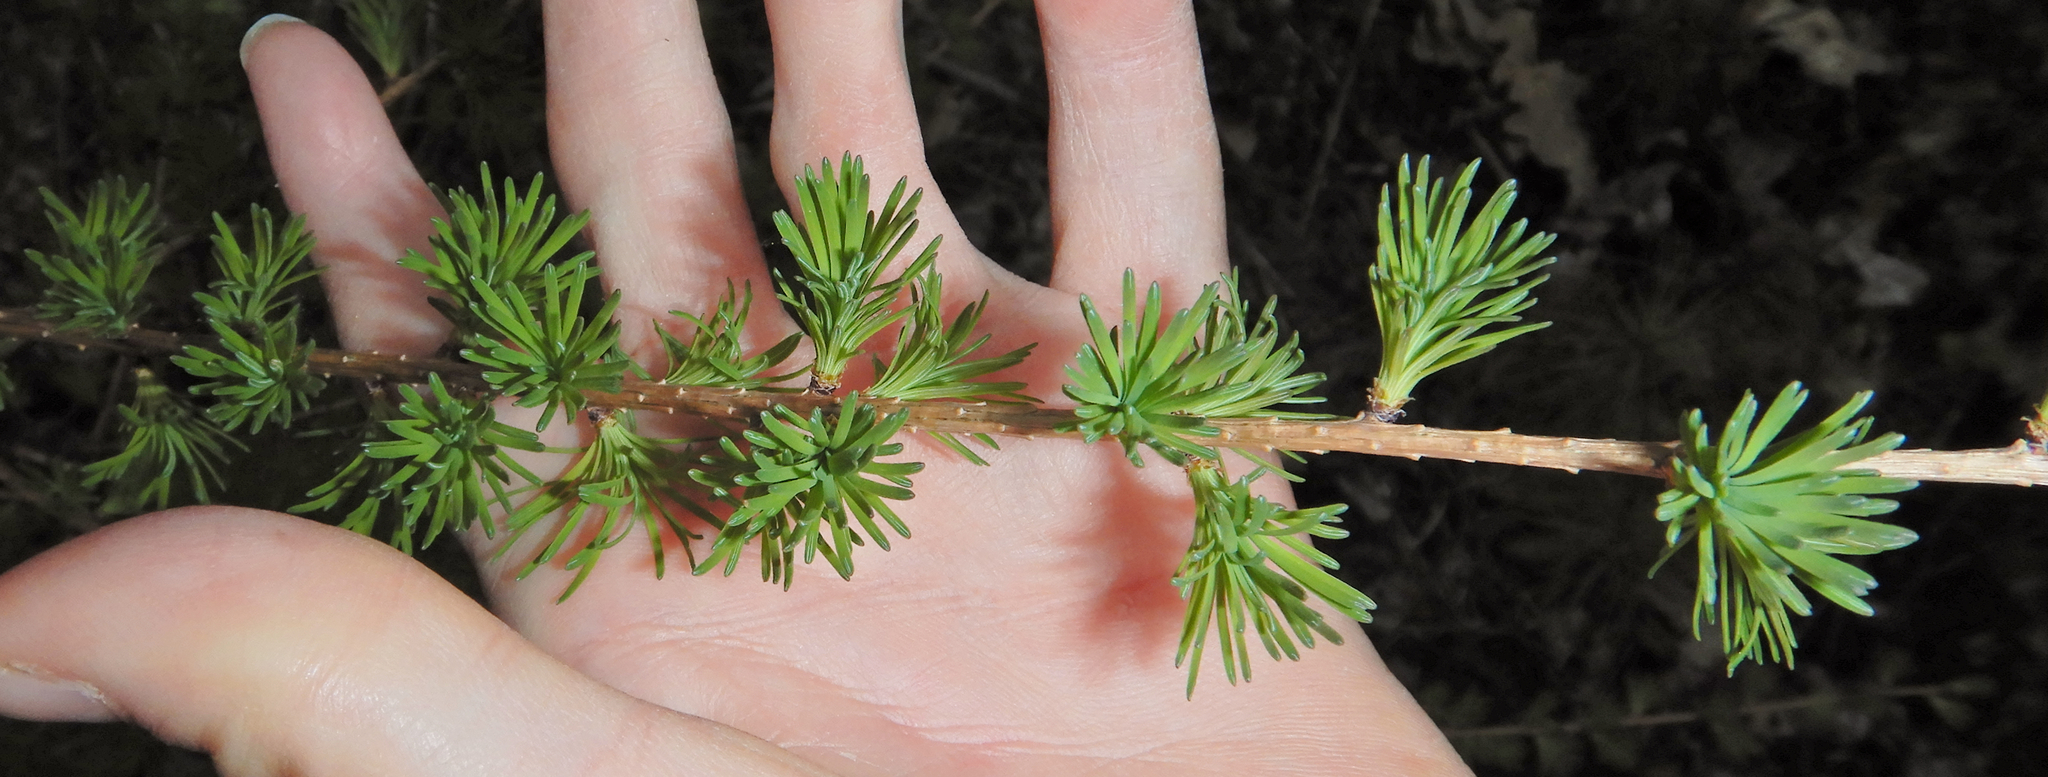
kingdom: Plantae
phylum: Tracheophyta
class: Pinopsida
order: Pinales
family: Pinaceae
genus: Larix
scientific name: Larix laricina
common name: American larch
